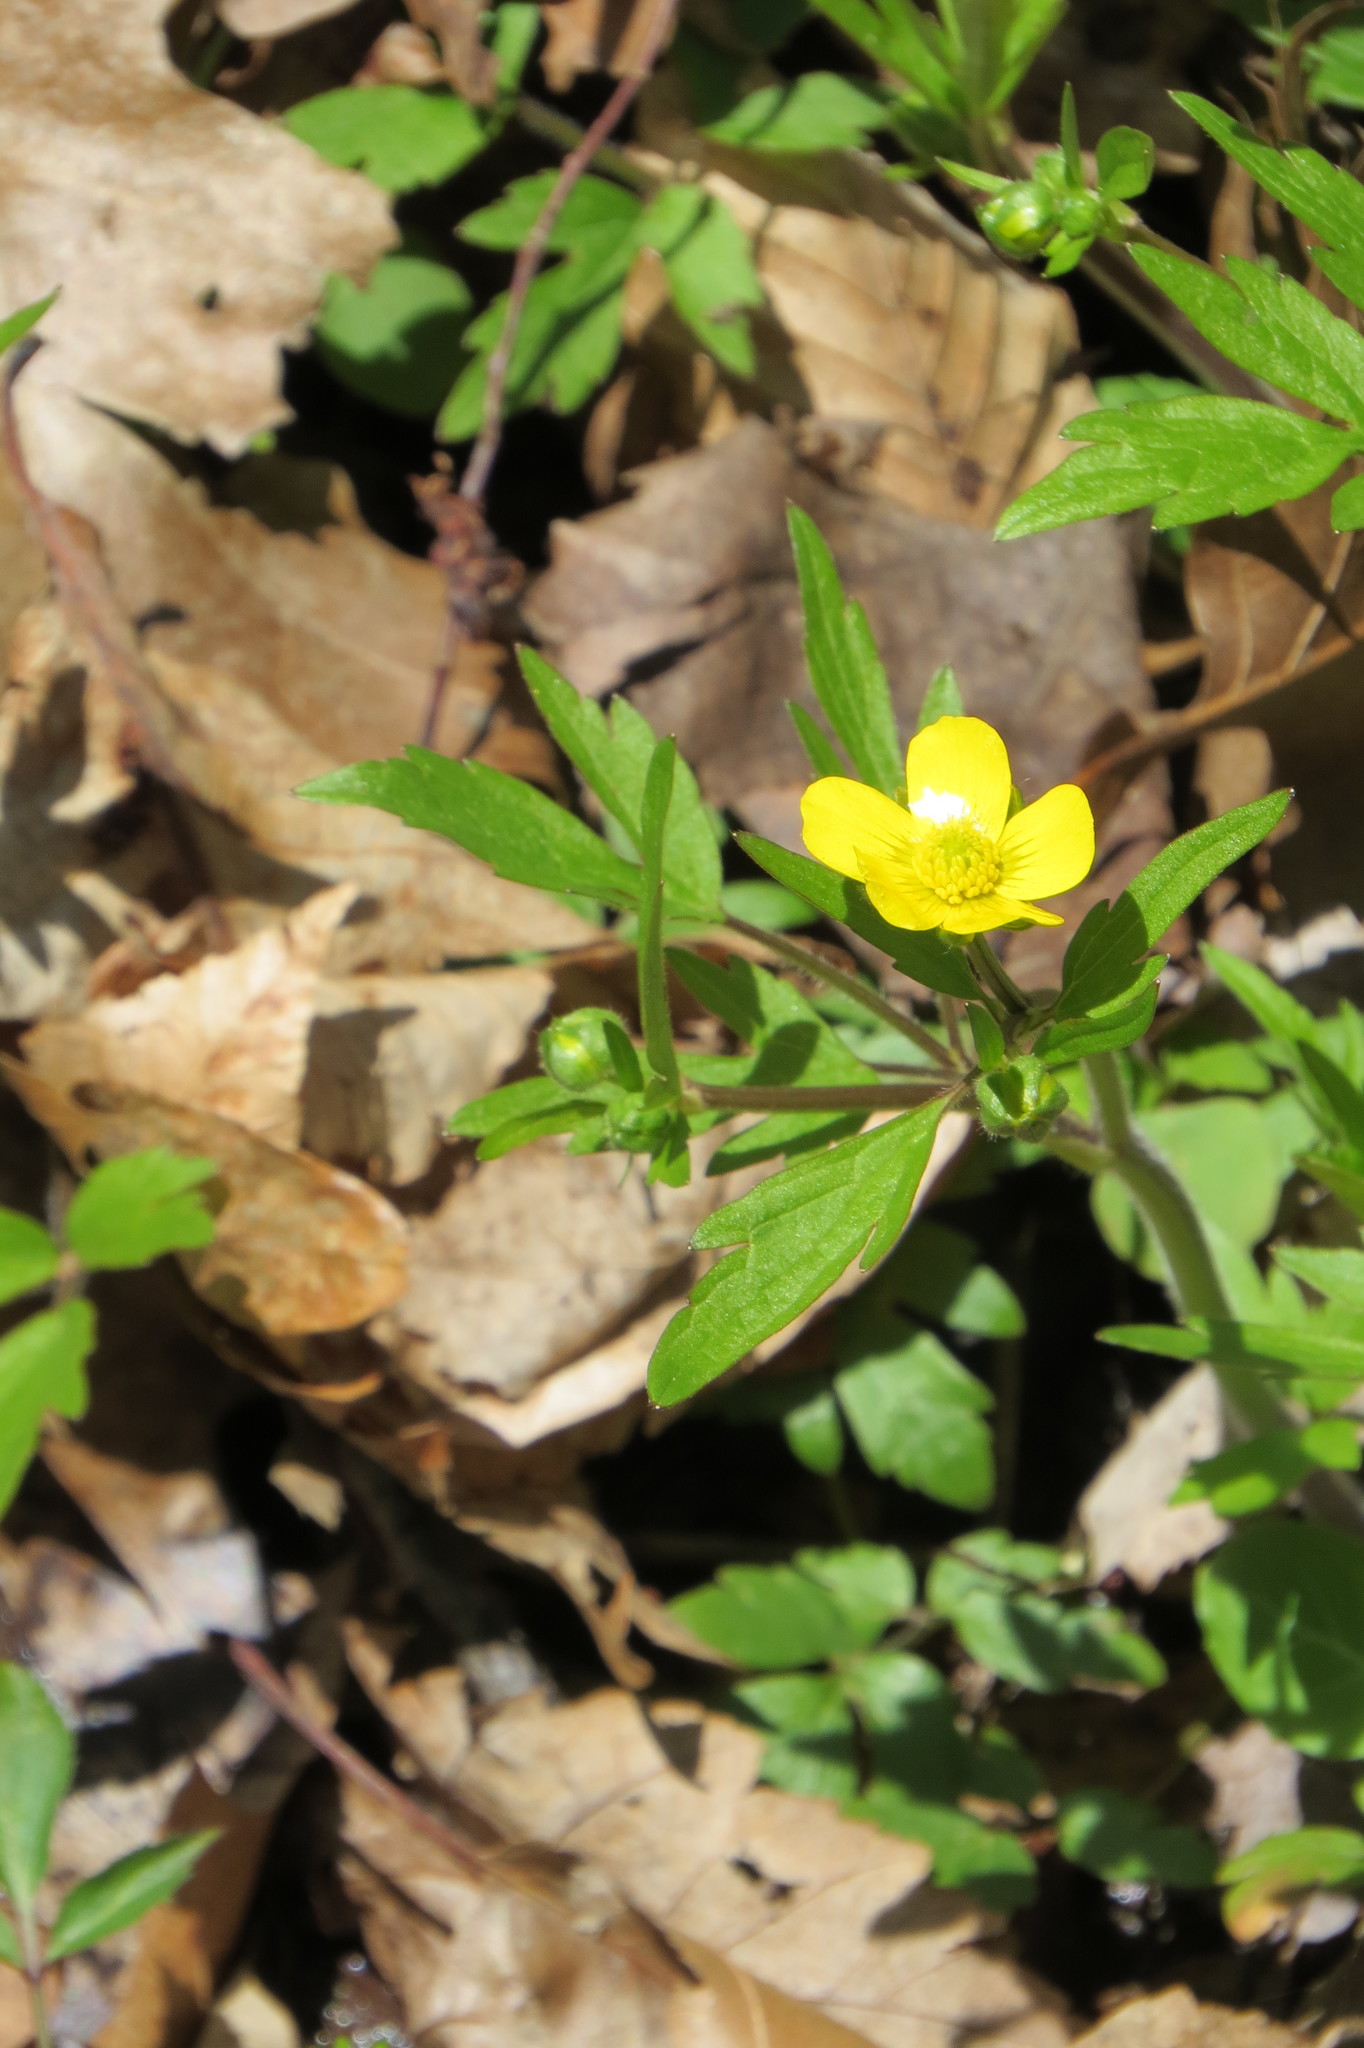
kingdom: Plantae
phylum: Tracheophyta
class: Magnoliopsida
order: Ranunculales
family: Ranunculaceae
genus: Ranunculus
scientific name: Ranunculus hispidus
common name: Bristly buttercup
